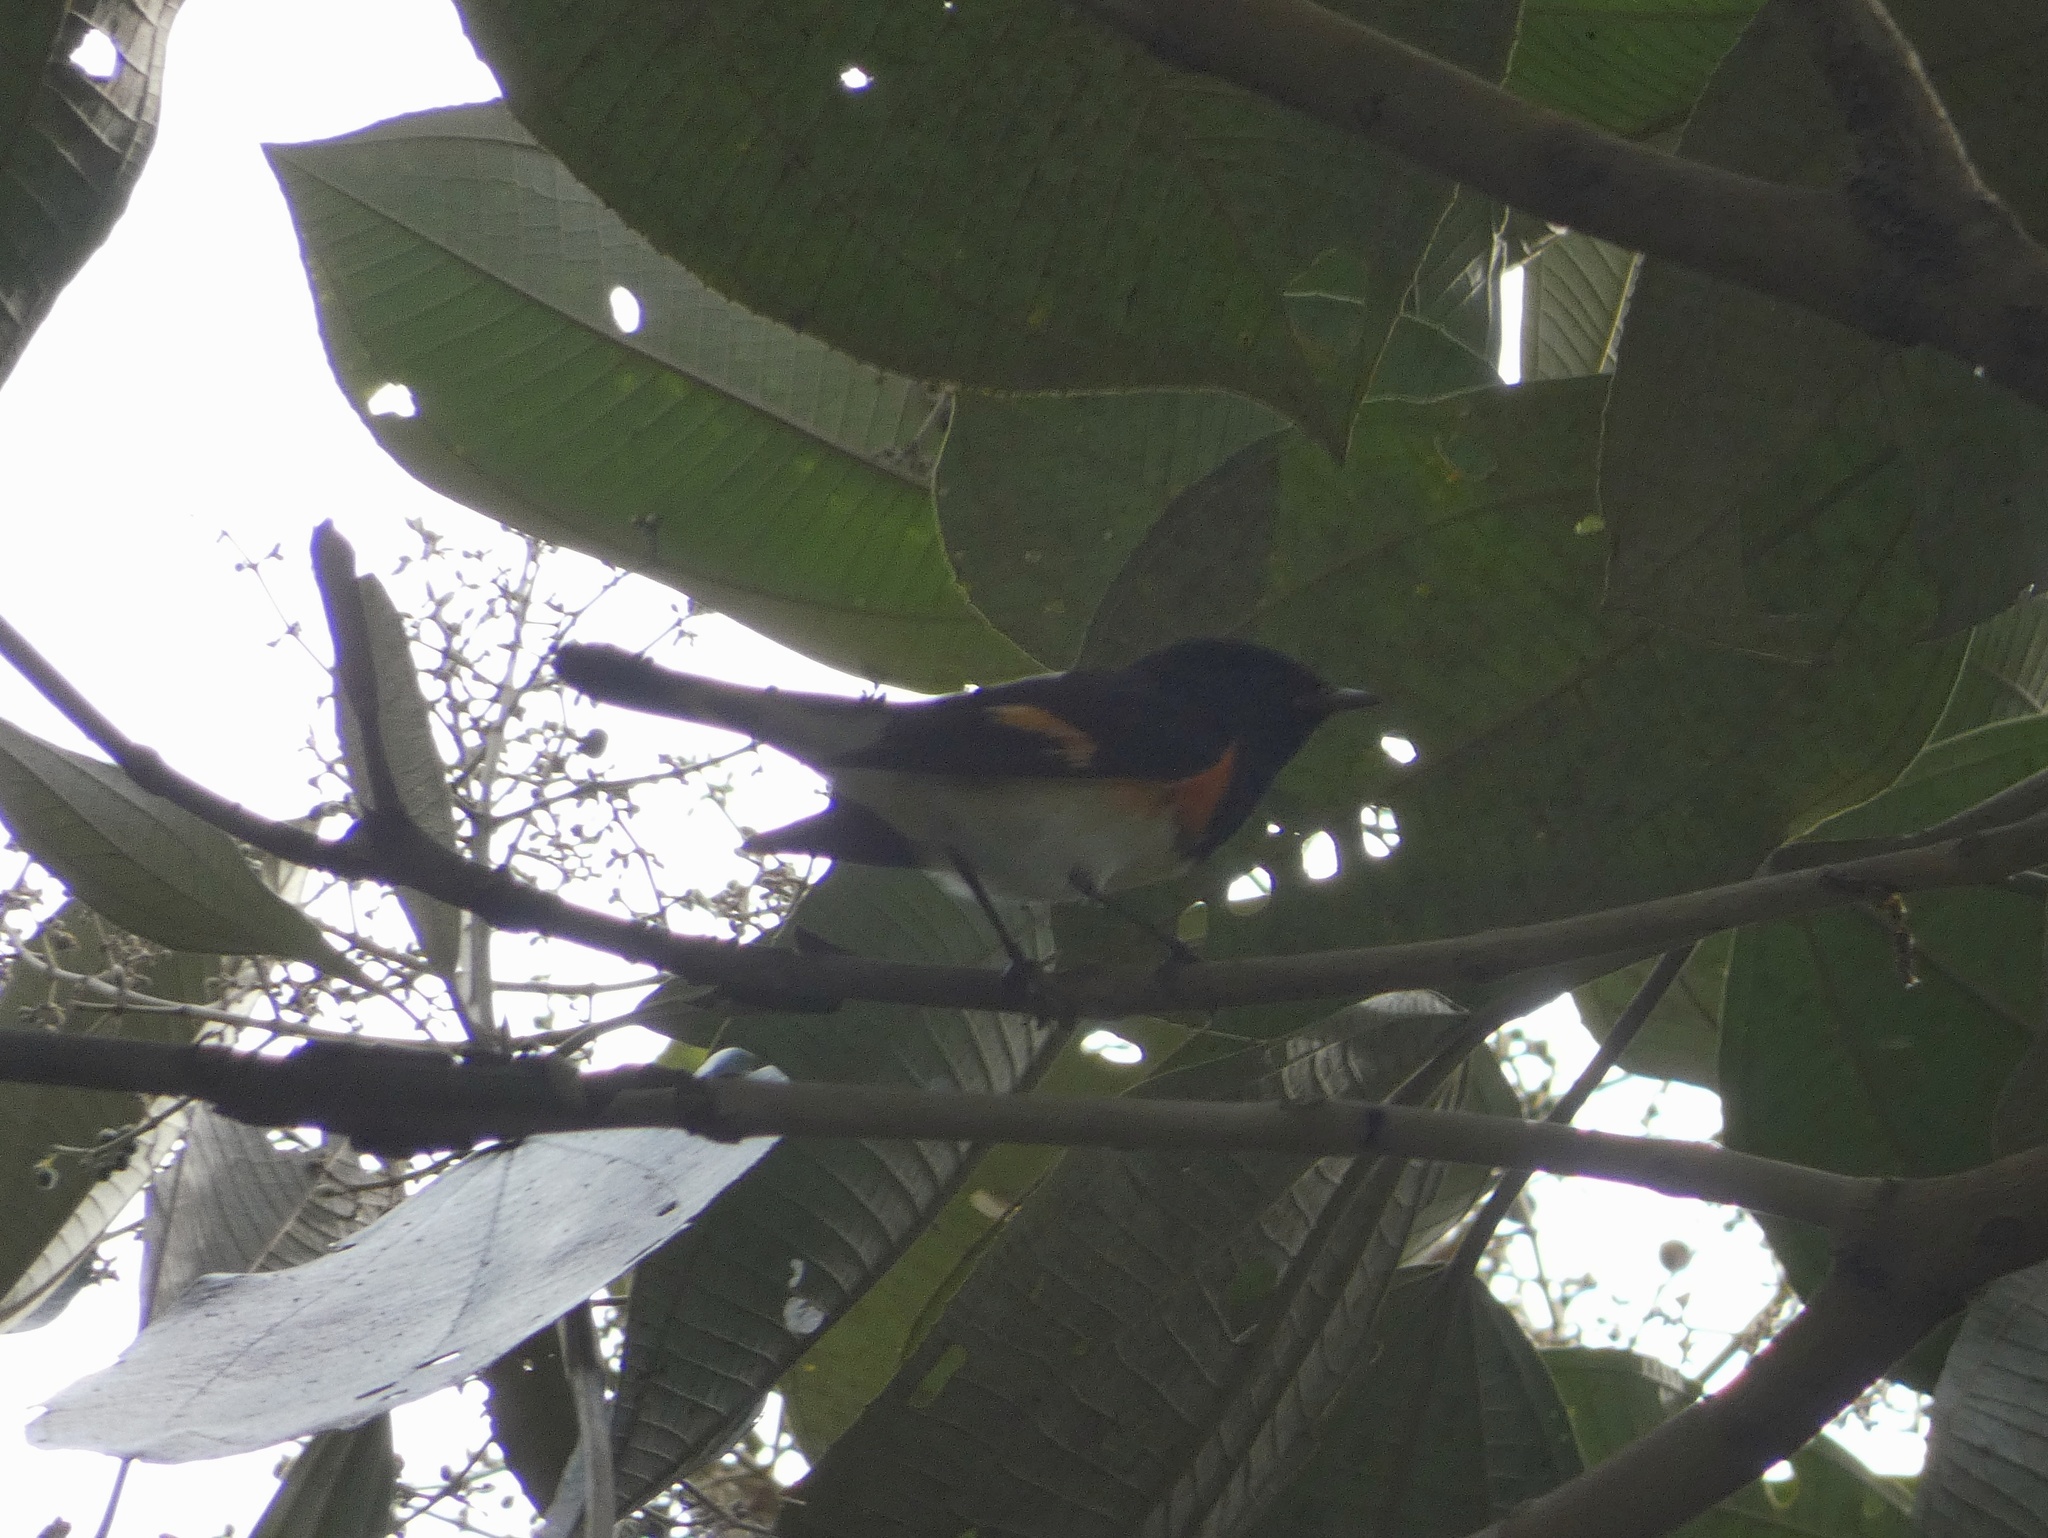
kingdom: Animalia
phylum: Chordata
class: Aves
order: Passeriformes
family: Parulidae
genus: Setophaga
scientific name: Setophaga ruticilla
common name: American redstart
